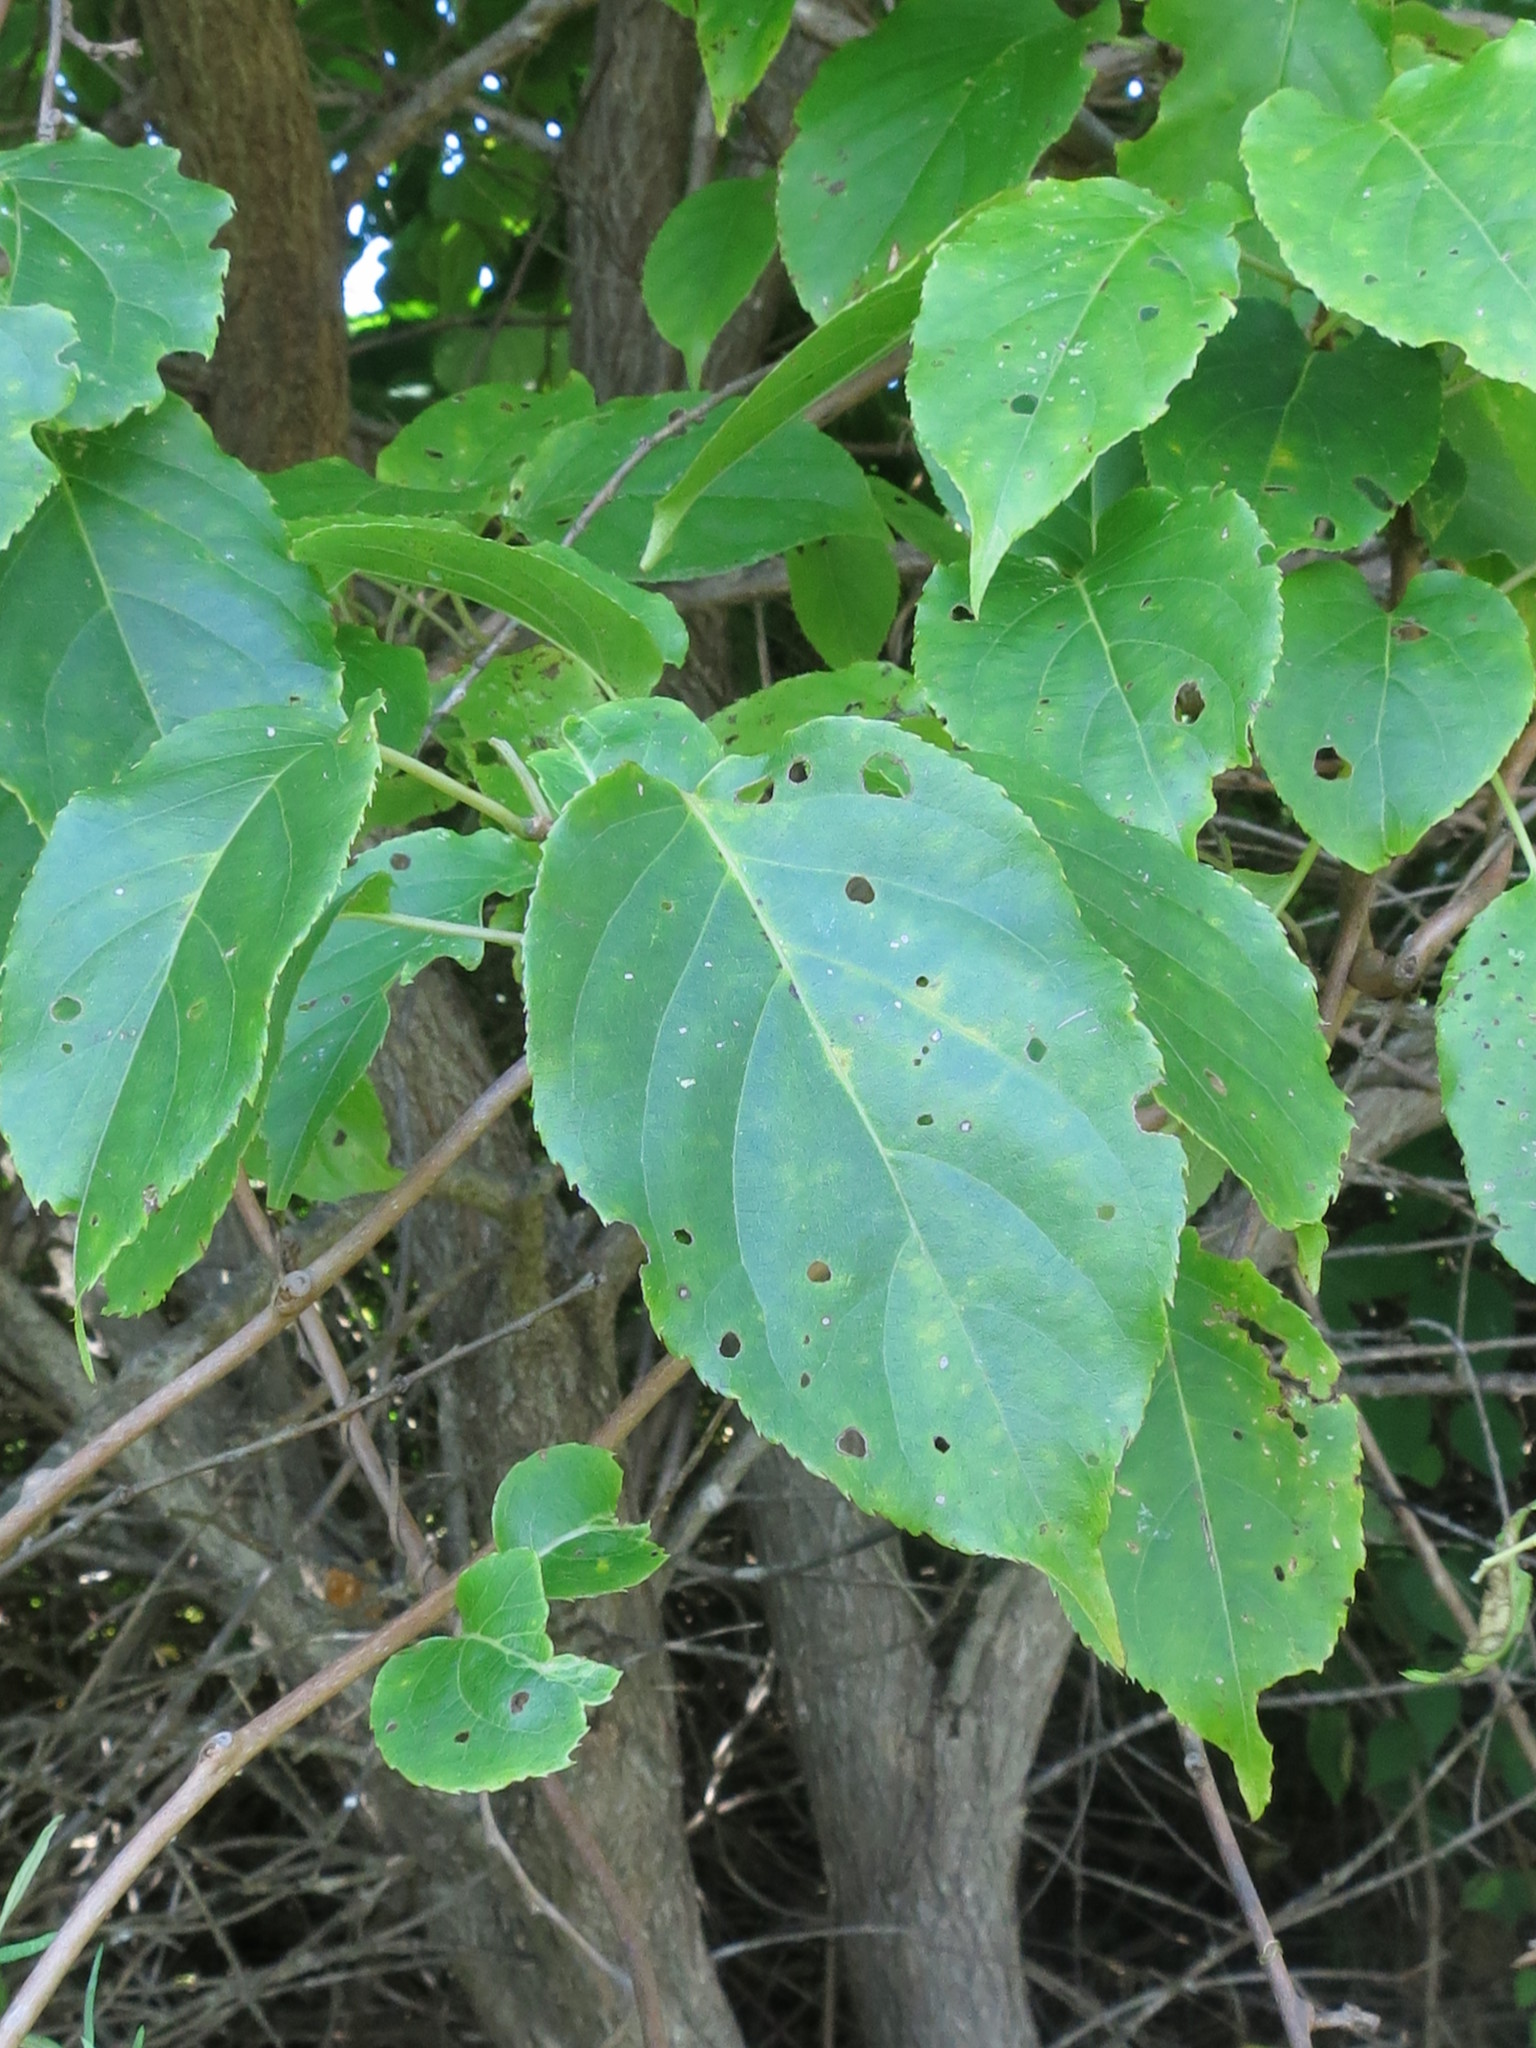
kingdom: Plantae
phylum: Tracheophyta
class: Magnoliopsida
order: Ericales
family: Actinidiaceae
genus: Actinidia
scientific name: Actinidia arguta
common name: Tara vine
